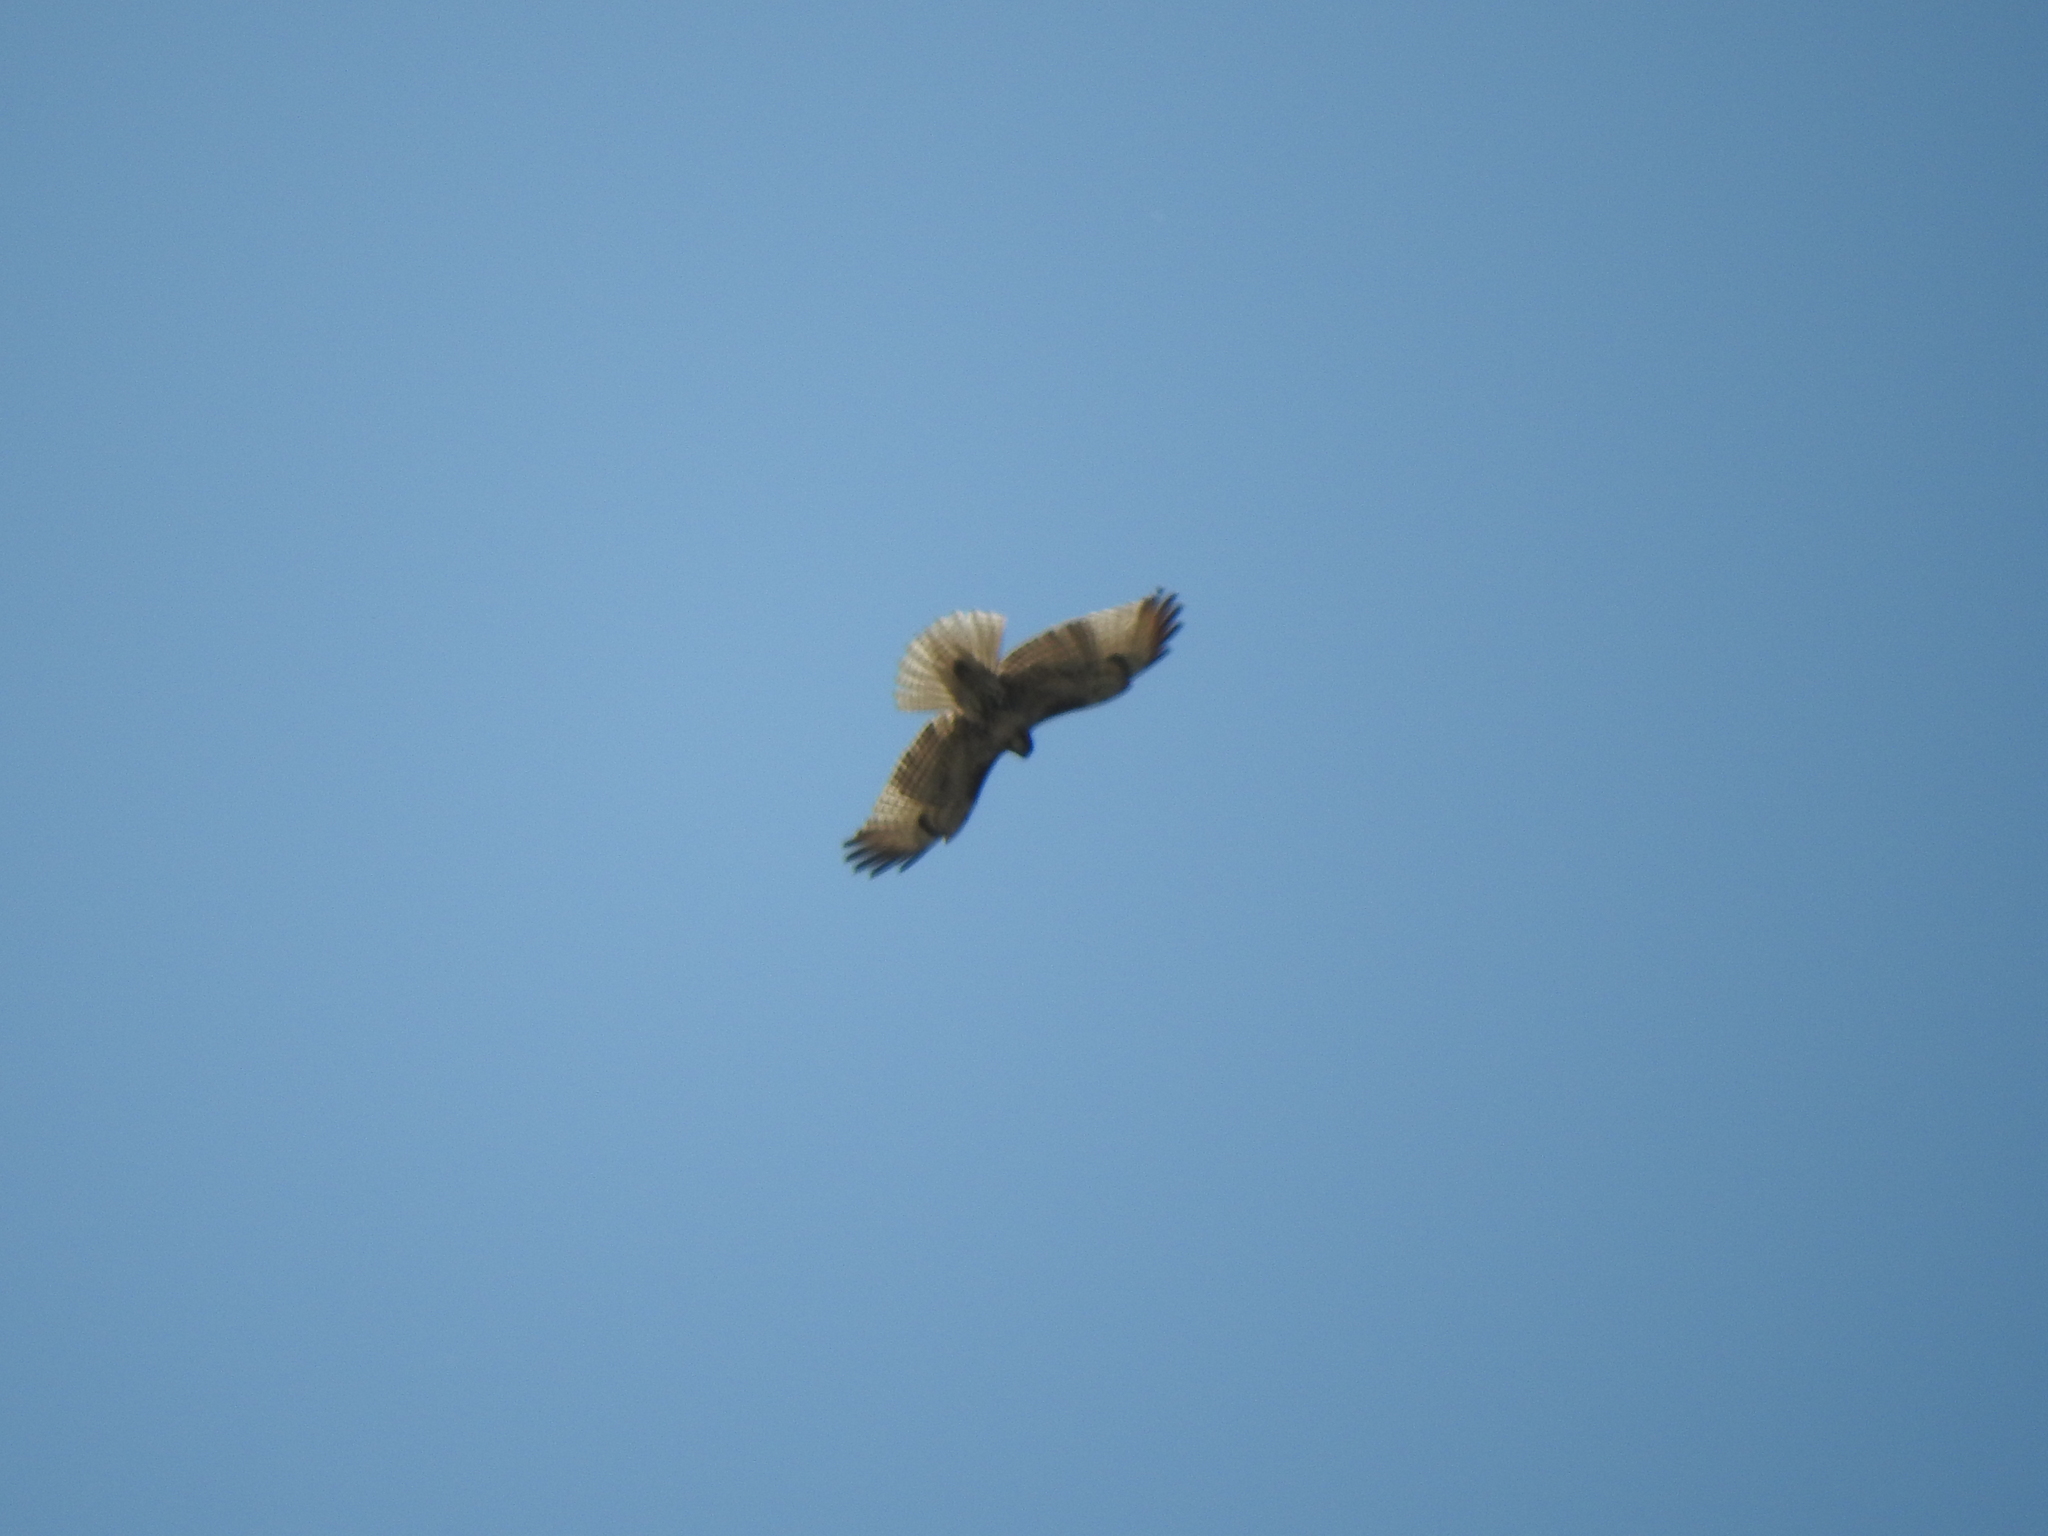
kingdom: Animalia
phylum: Chordata
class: Aves
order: Accipitriformes
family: Accipitridae
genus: Buteo
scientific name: Buteo jamaicensis
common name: Red-tailed hawk
